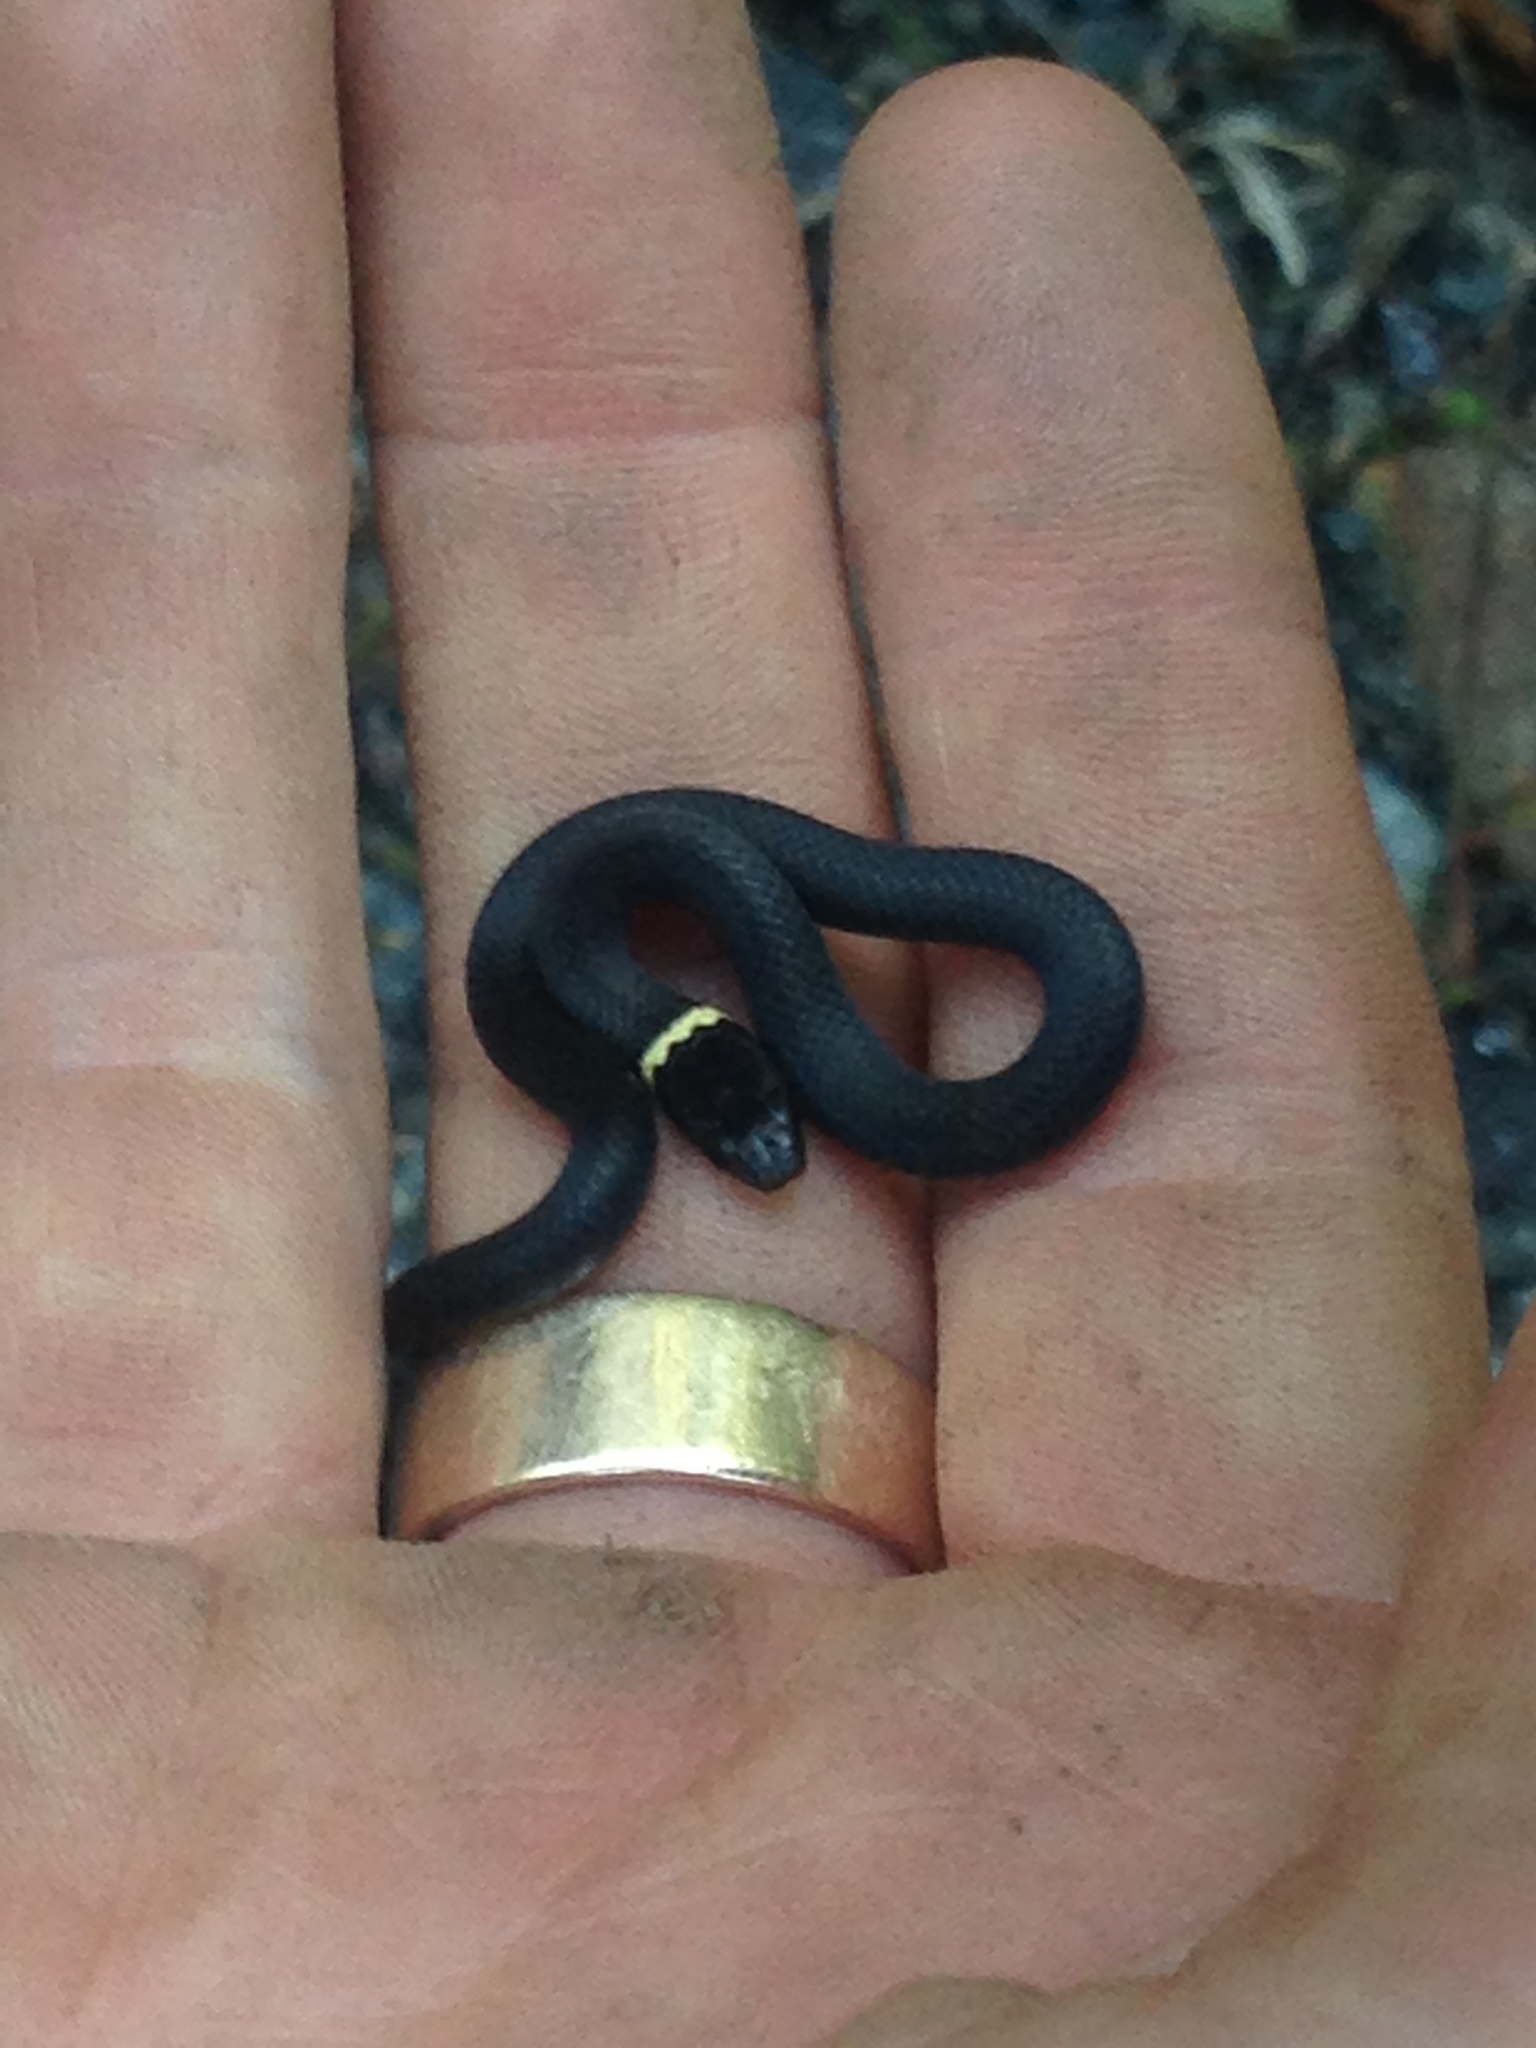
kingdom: Animalia
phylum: Chordata
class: Squamata
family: Colubridae
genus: Diadophis
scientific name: Diadophis punctatus
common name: Ringneck snake
